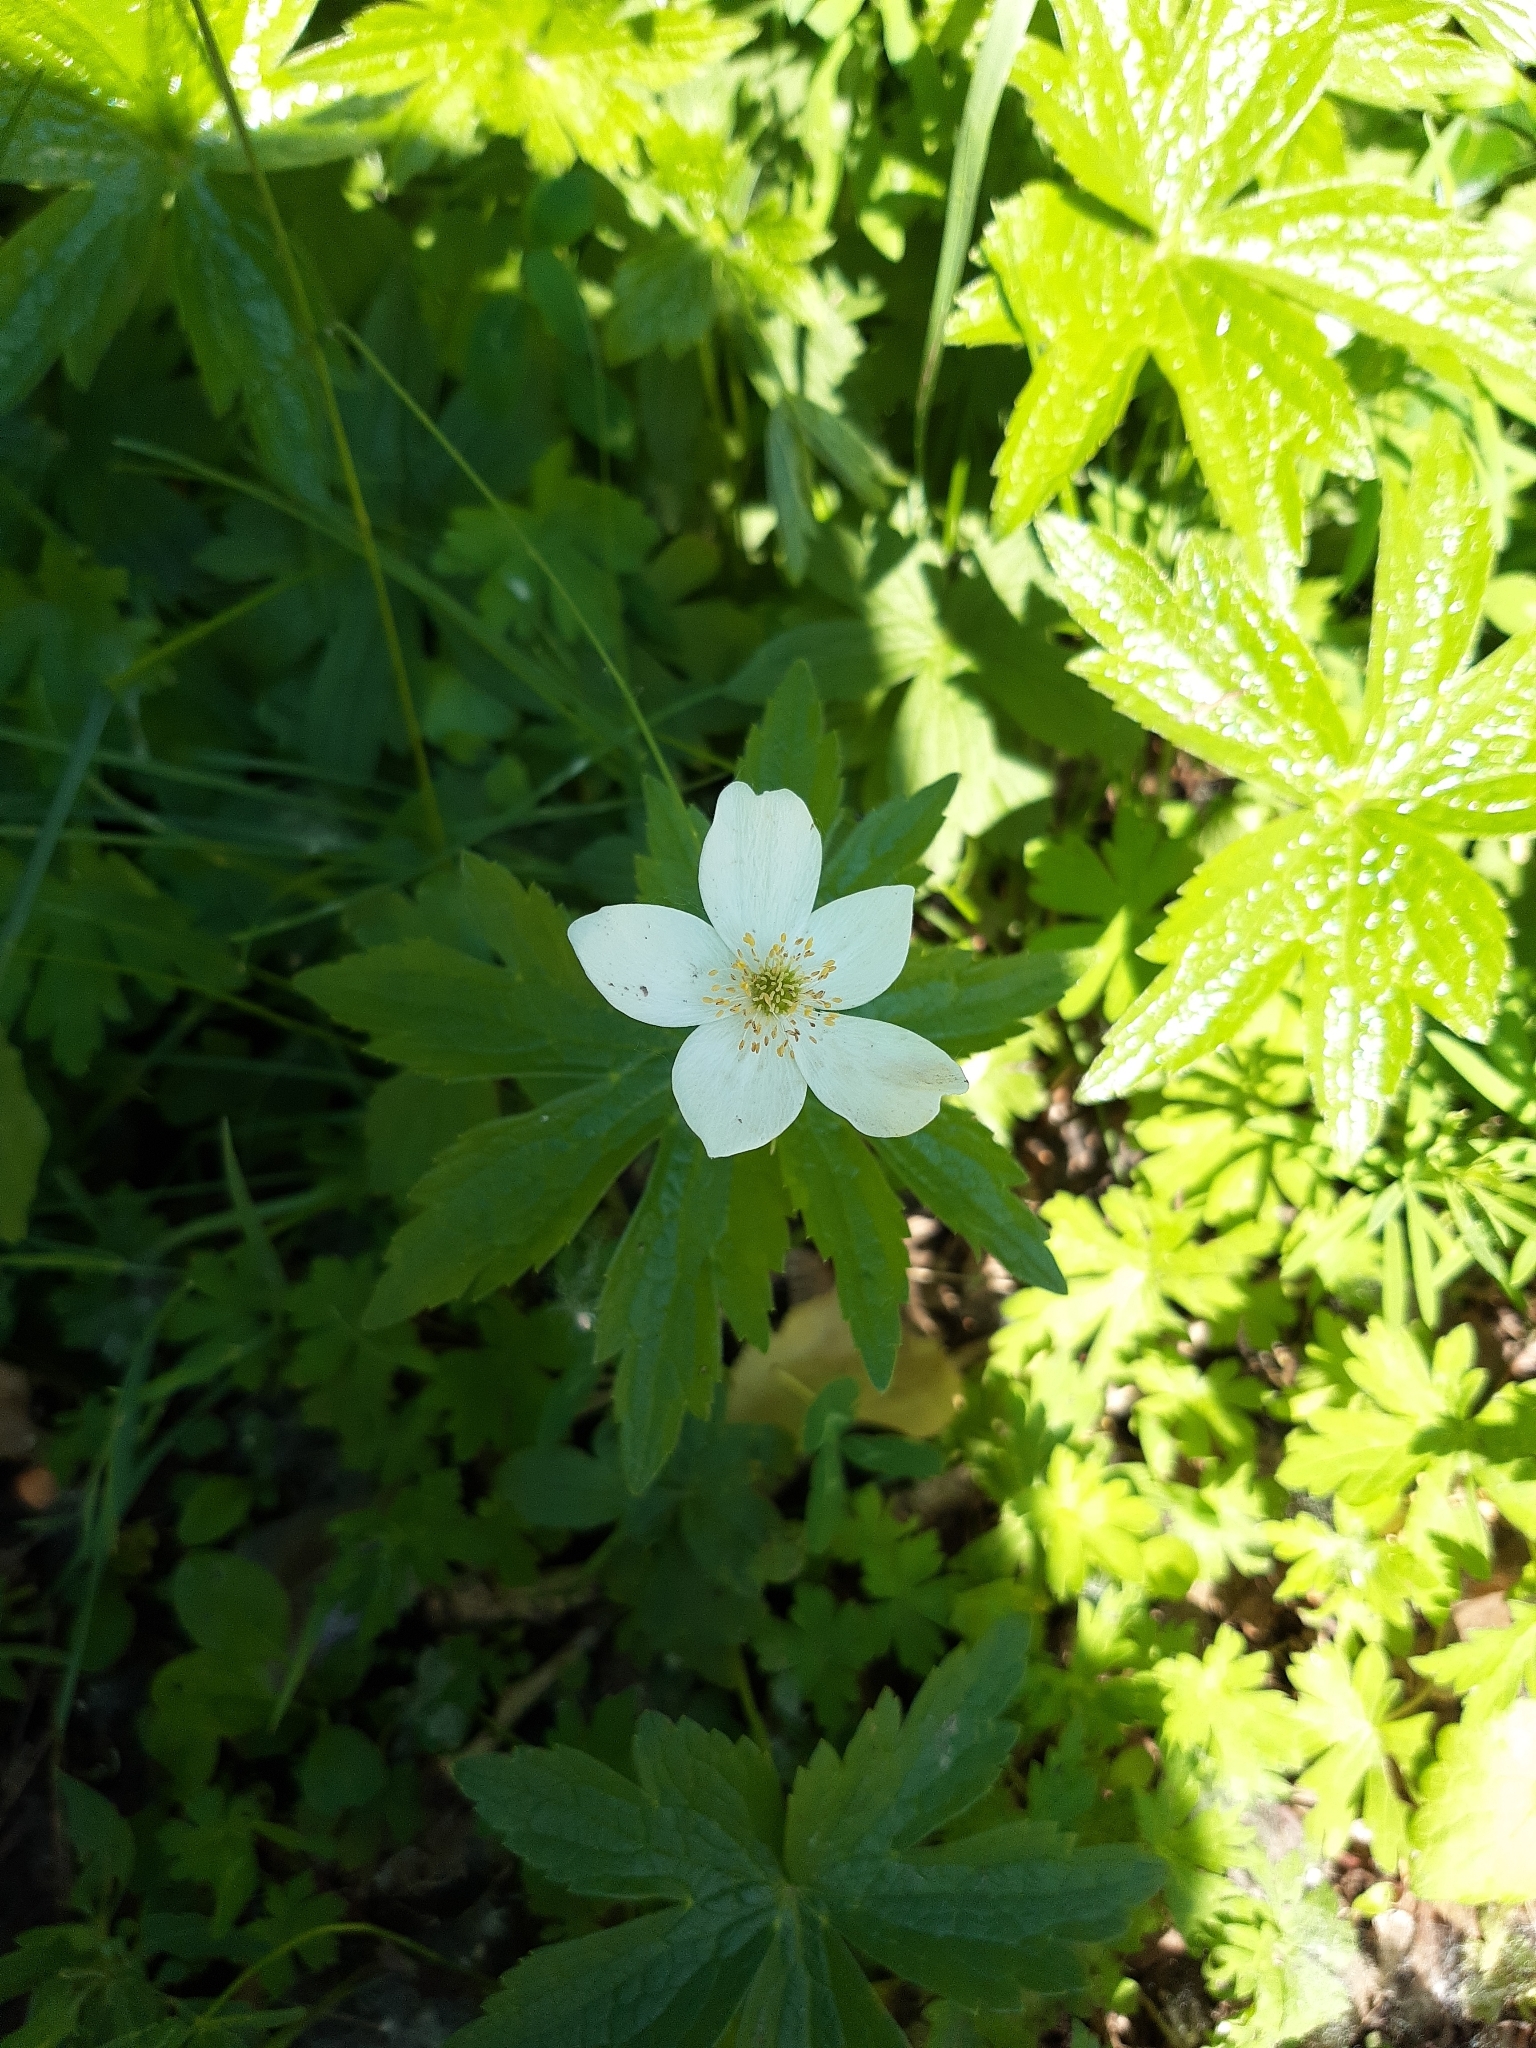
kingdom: Plantae
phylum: Tracheophyta
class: Magnoliopsida
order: Ranunculales
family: Ranunculaceae
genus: Anemonastrum
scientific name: Anemonastrum canadense
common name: Canada anemone
